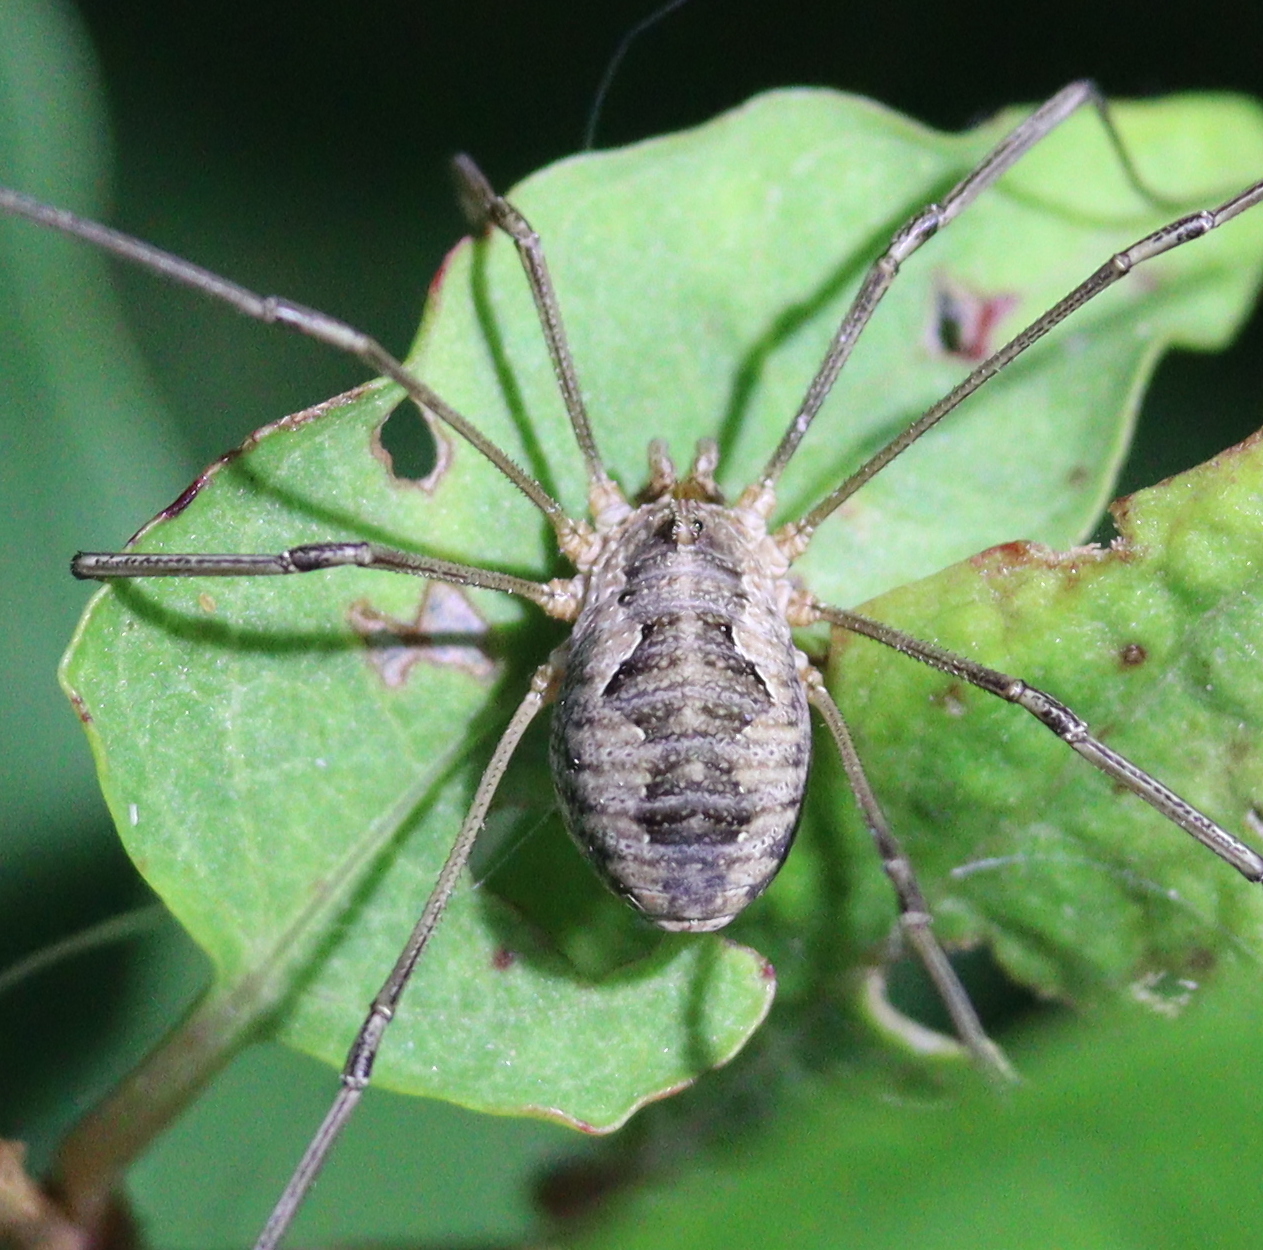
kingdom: Animalia
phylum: Arthropoda
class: Arachnida
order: Opiliones
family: Phalangiidae
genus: Phalangium
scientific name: Phalangium opilio
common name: Daddy longleg
